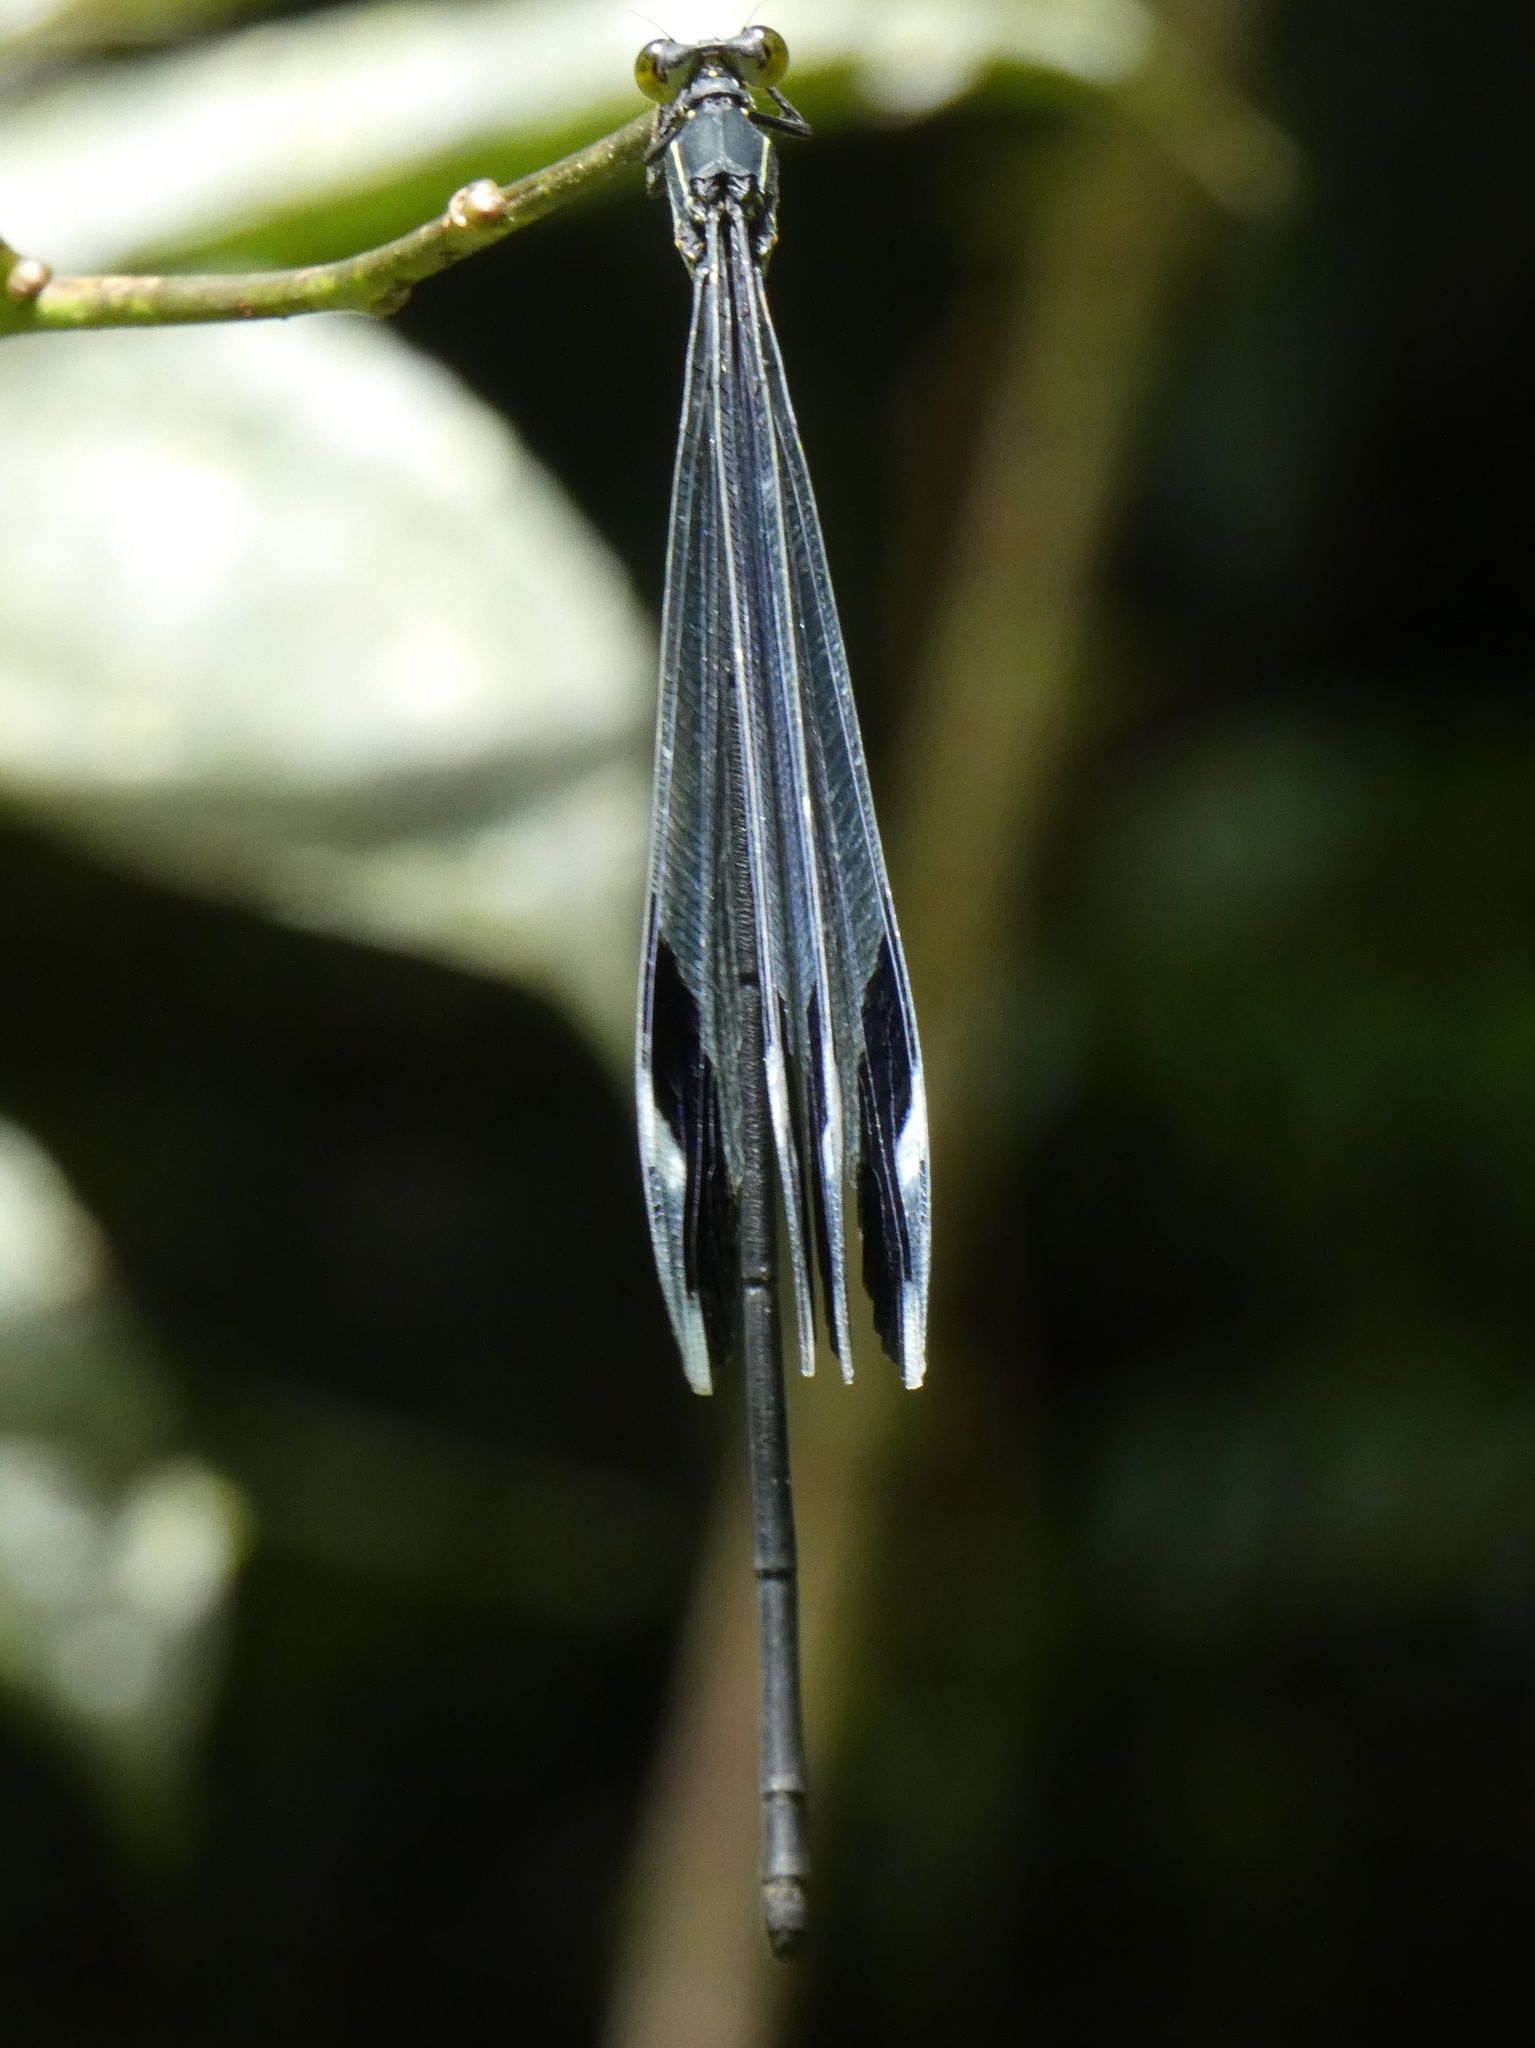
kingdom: Animalia
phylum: Arthropoda
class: Insecta
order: Odonata
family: Coenagrionidae
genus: Megaloprepus
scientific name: Megaloprepus caerulatus
